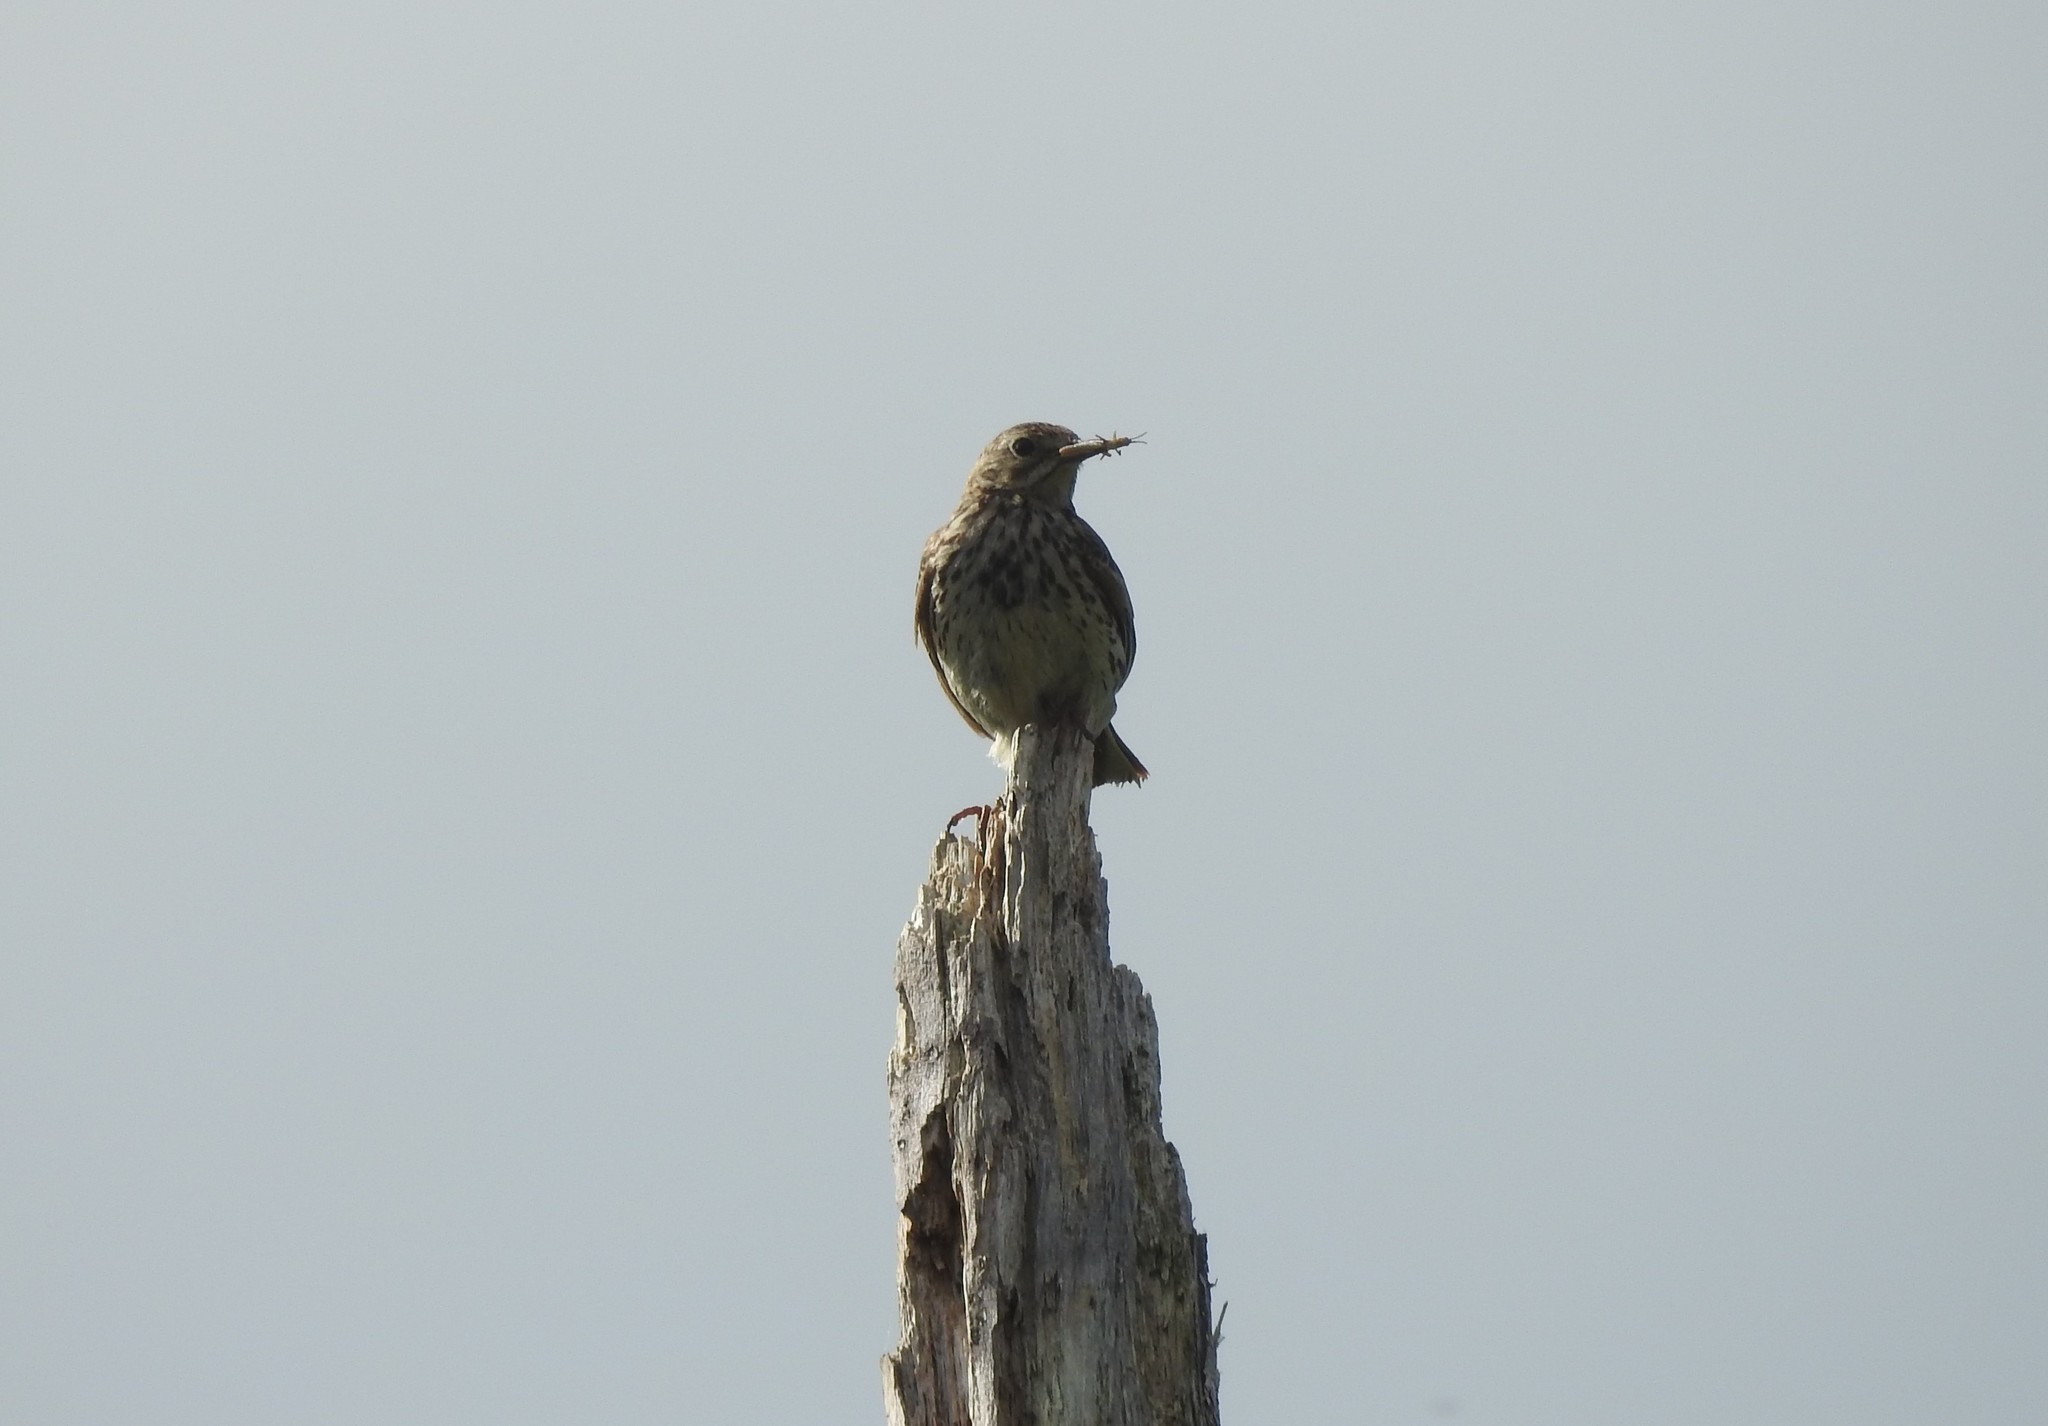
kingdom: Animalia
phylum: Chordata
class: Aves
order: Passeriformes
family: Motacillidae
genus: Anthus
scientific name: Anthus pratensis
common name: Meadow pipit
